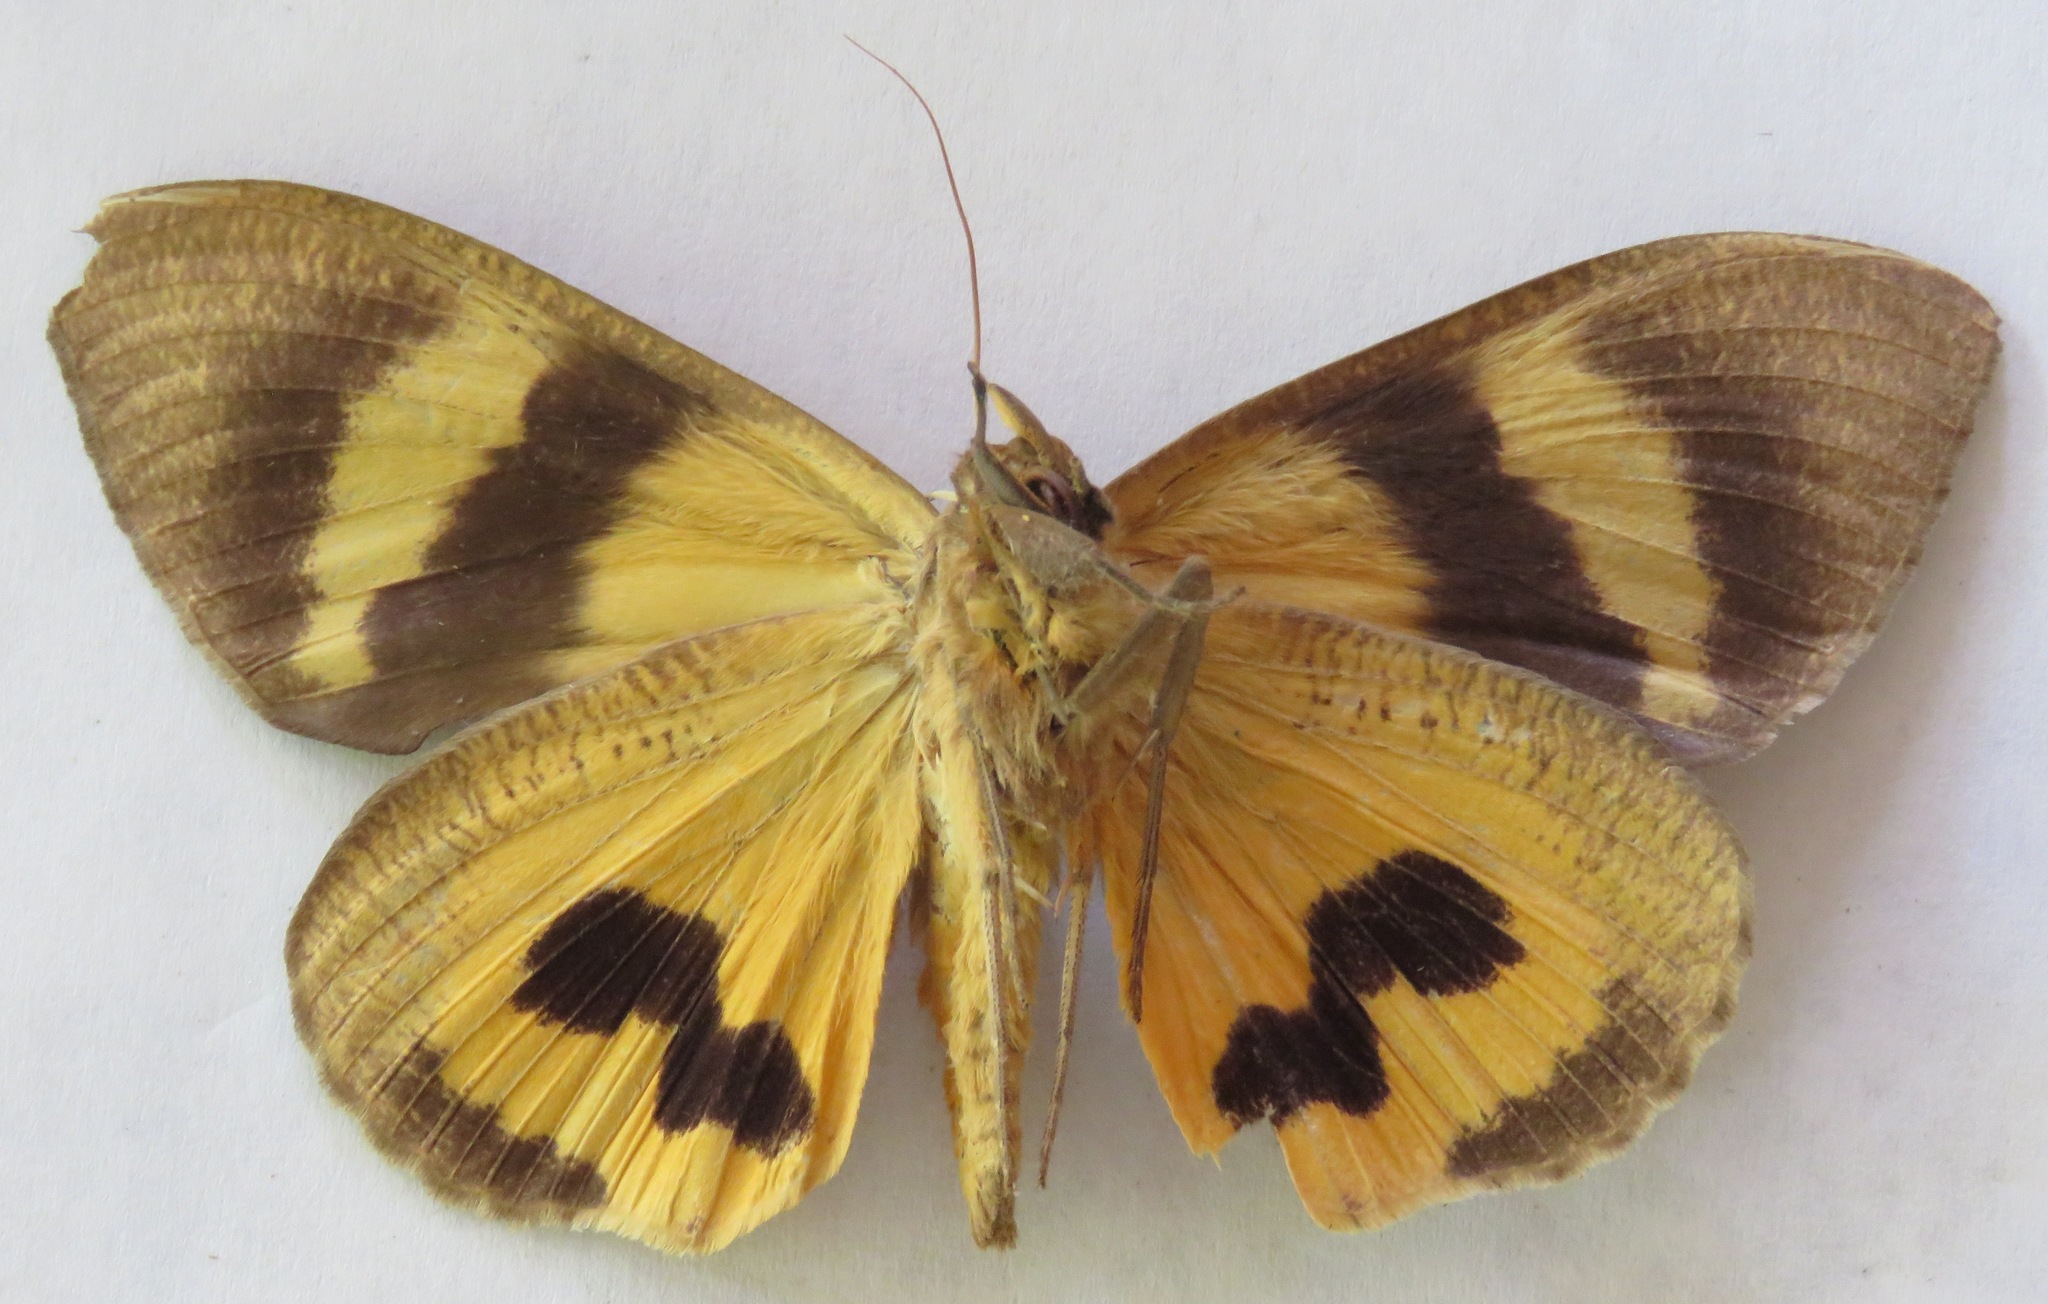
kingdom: Animalia
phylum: Arthropoda
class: Insecta
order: Lepidoptera
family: Erebidae
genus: Eudocima
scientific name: Eudocima serpentifera
